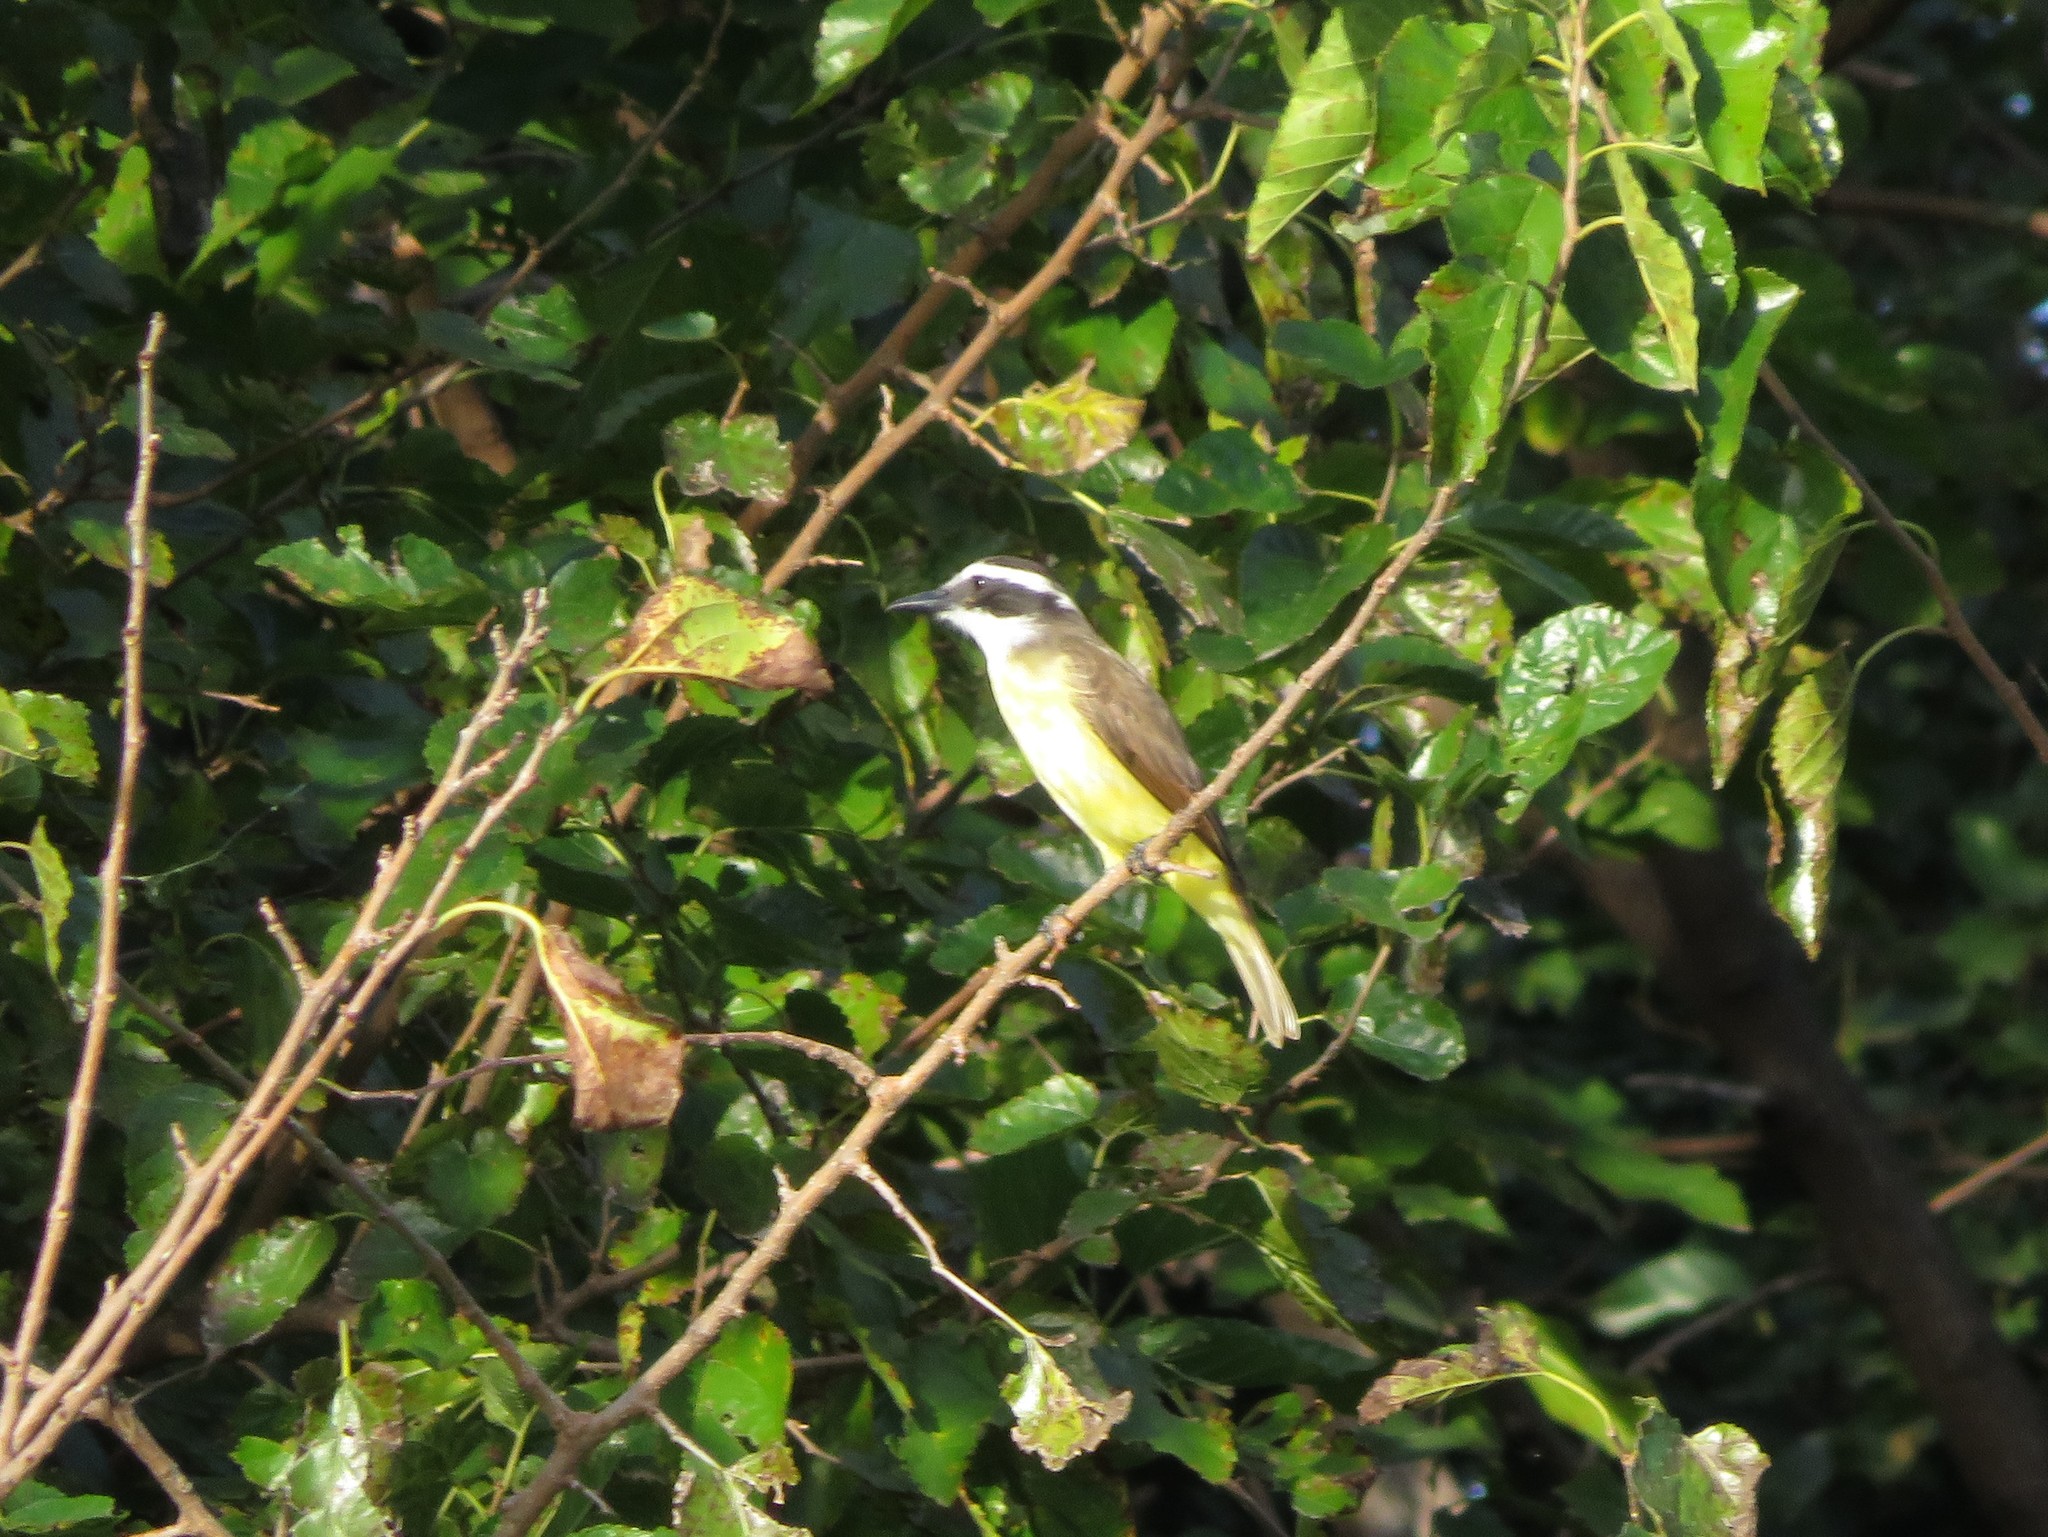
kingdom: Animalia
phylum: Chordata
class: Aves
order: Passeriformes
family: Tyrannidae
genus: Pitangus
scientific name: Pitangus sulphuratus
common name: Great kiskadee
